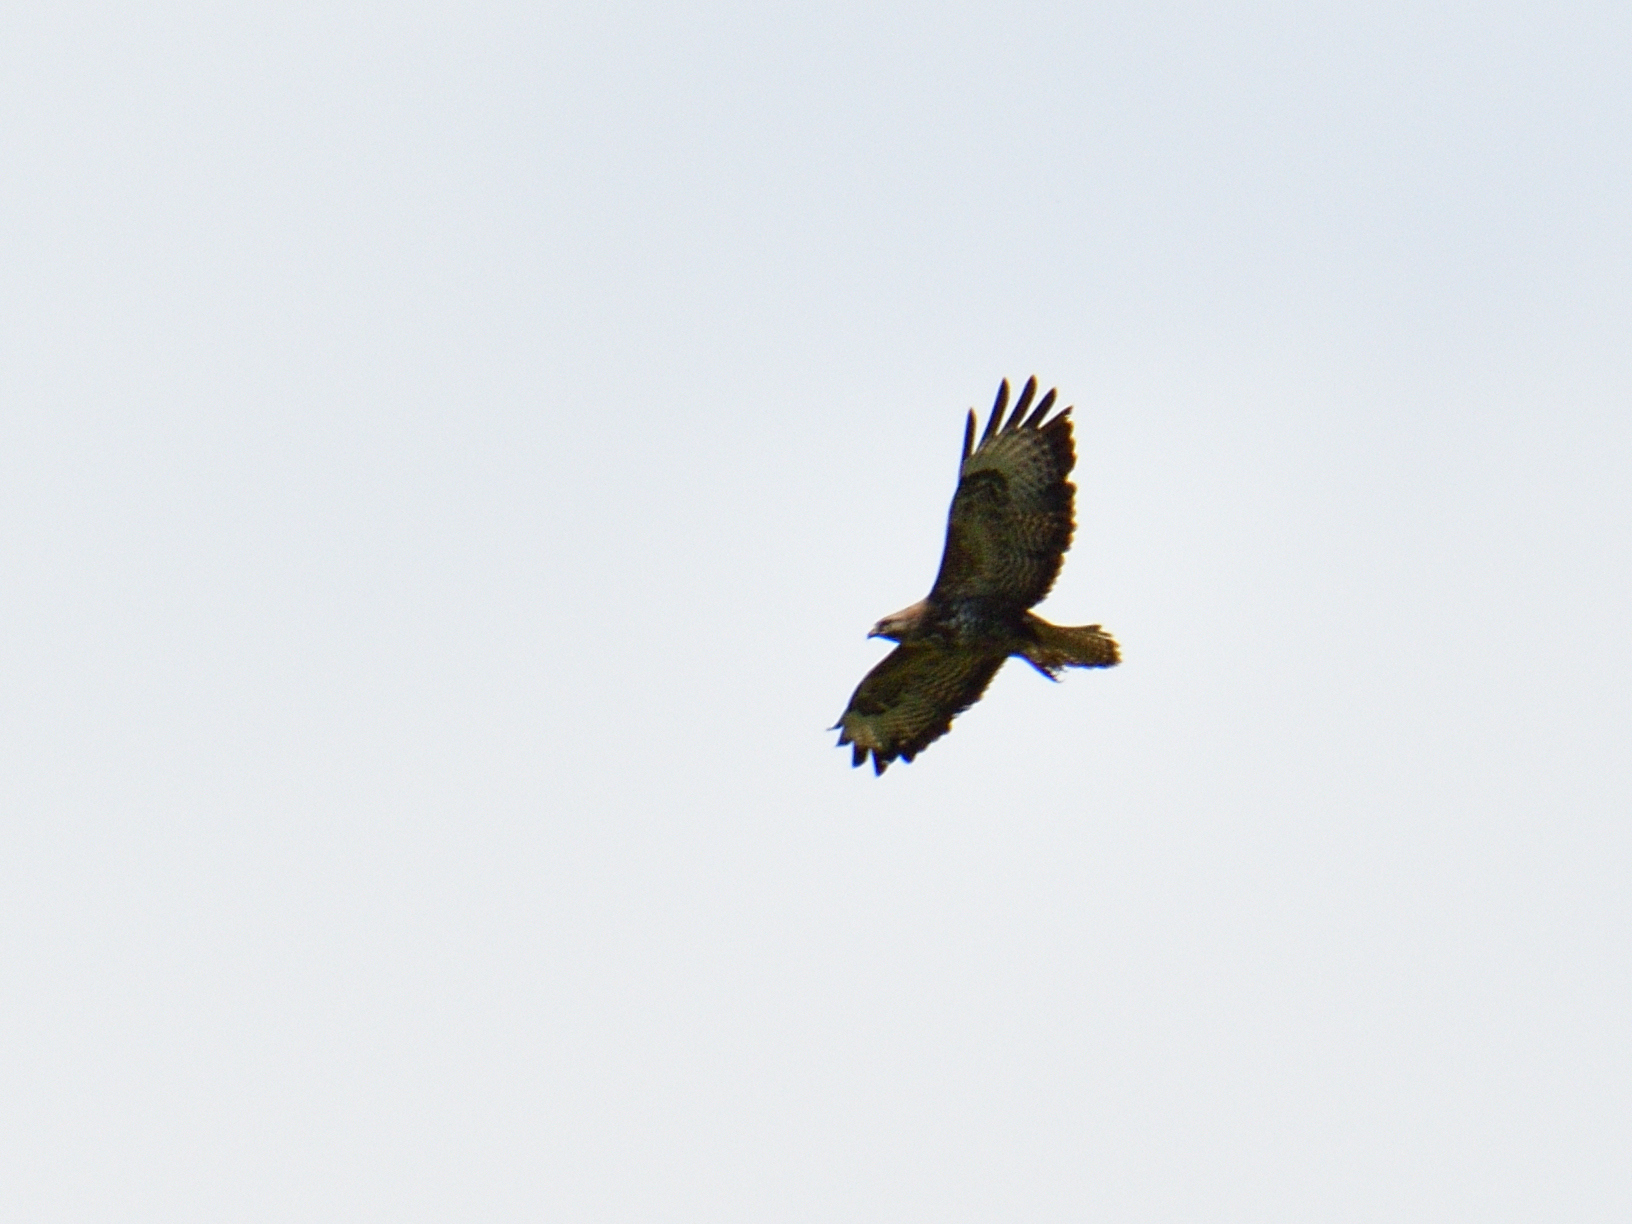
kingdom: Animalia
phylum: Chordata
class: Aves
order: Accipitriformes
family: Accipitridae
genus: Buteo
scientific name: Buteo buteo
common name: Common buzzard
